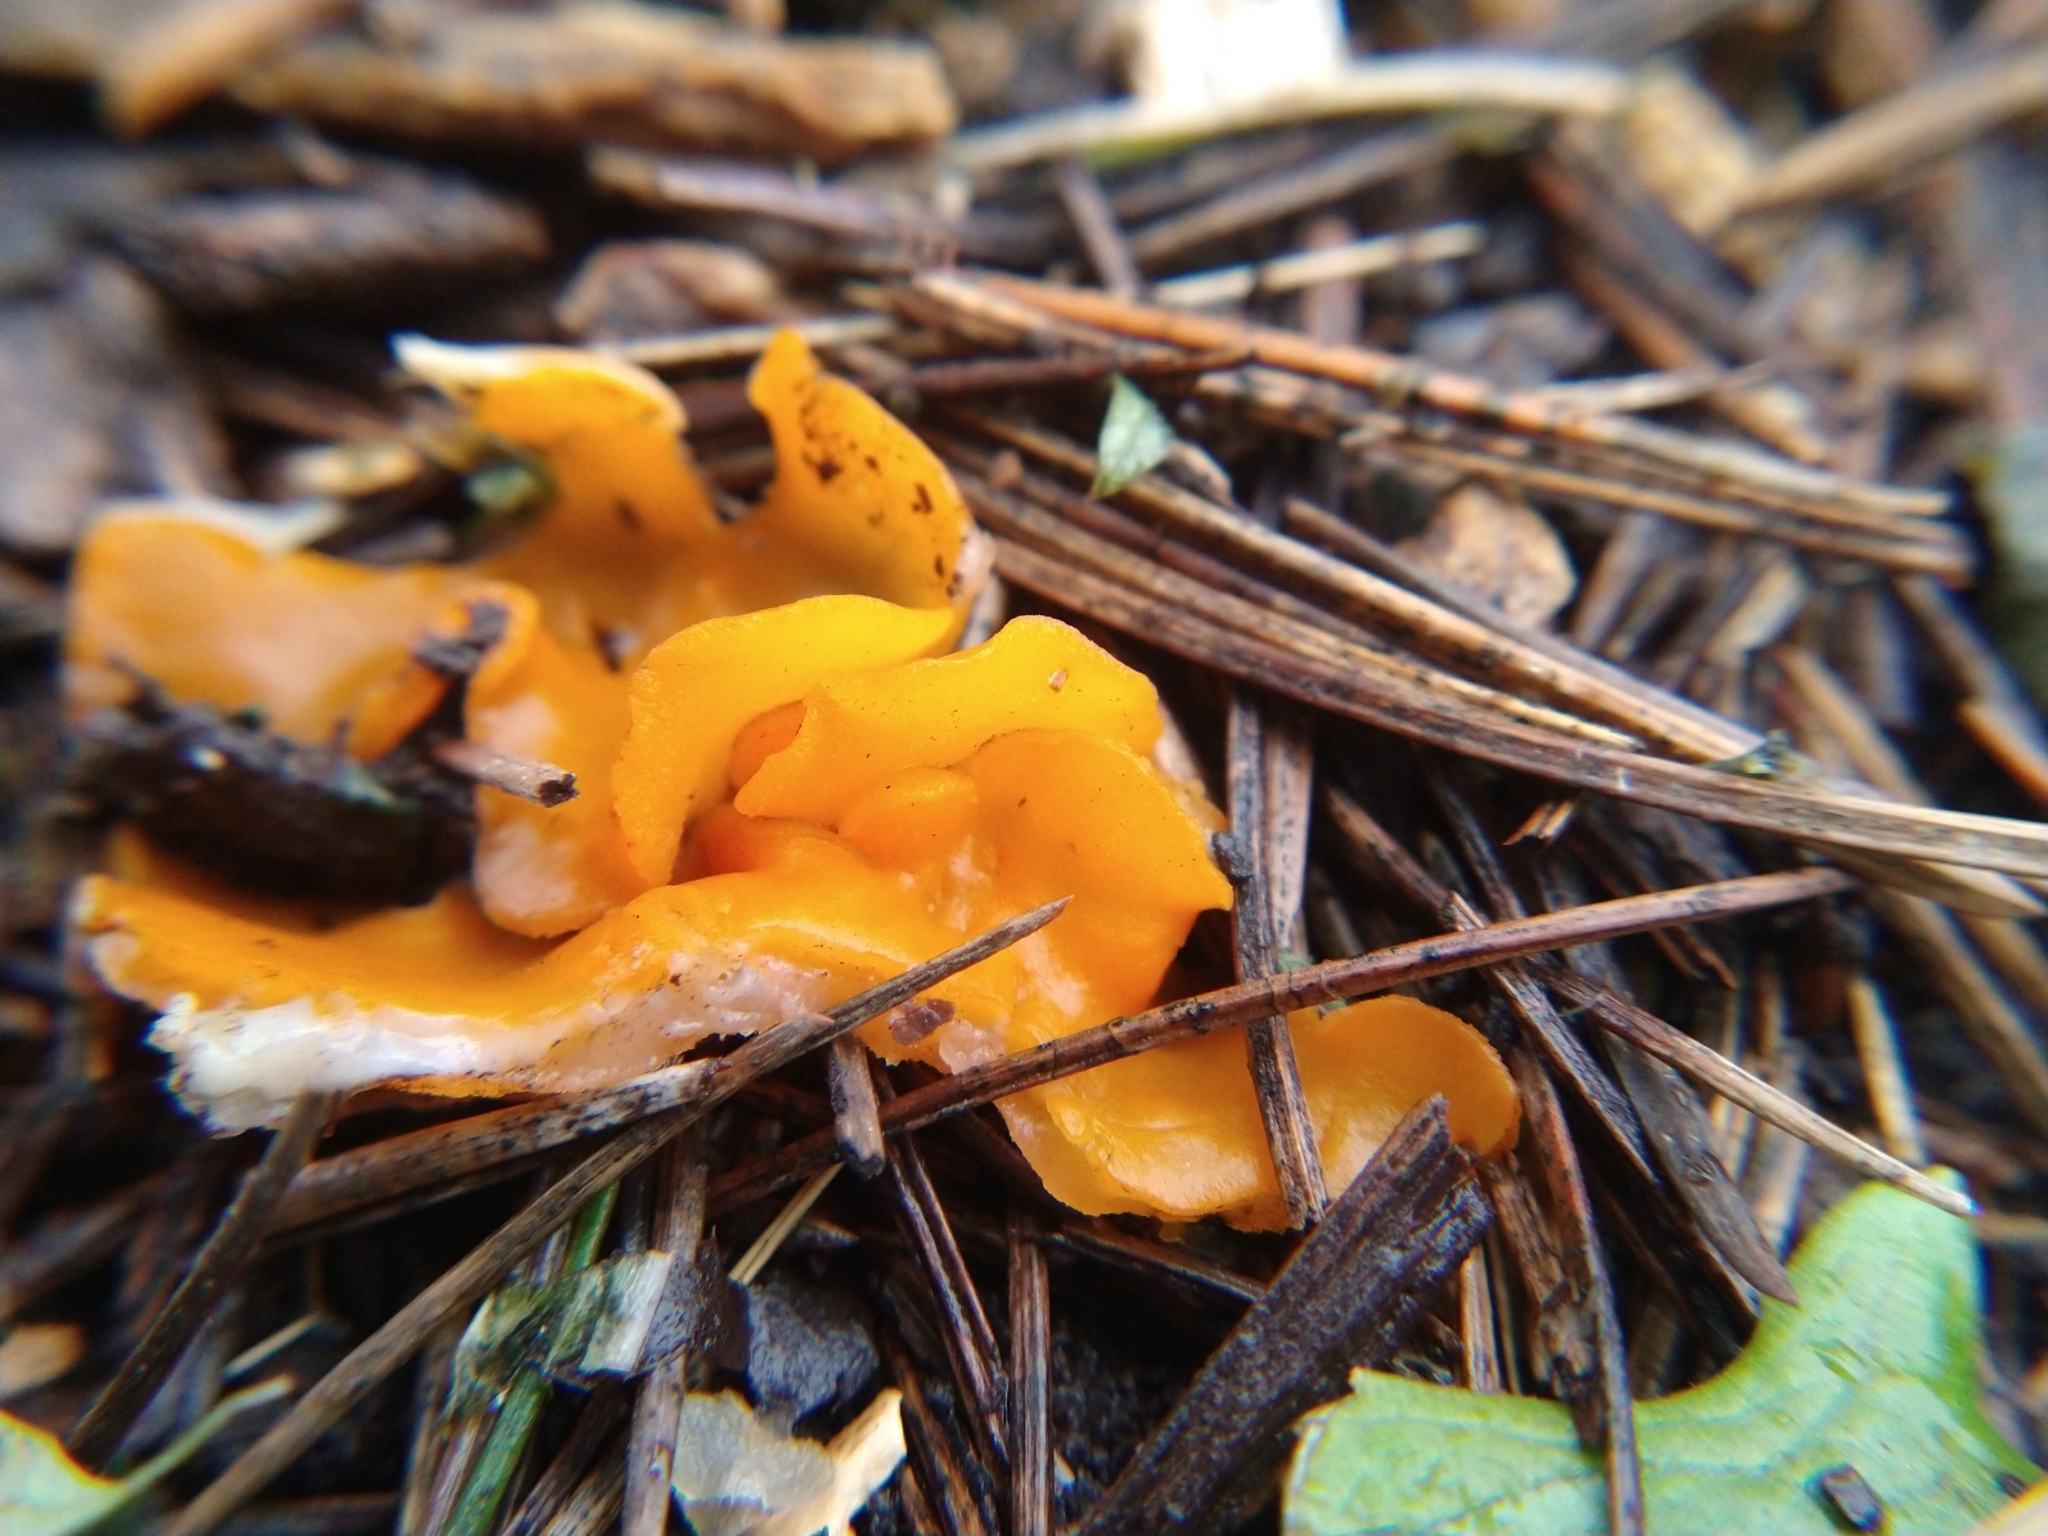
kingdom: Fungi
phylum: Ascomycota
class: Pezizomycetes
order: Pezizales
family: Pyronemataceae
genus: Aleuria
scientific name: Aleuria aurantia
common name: Orange peel fungus
